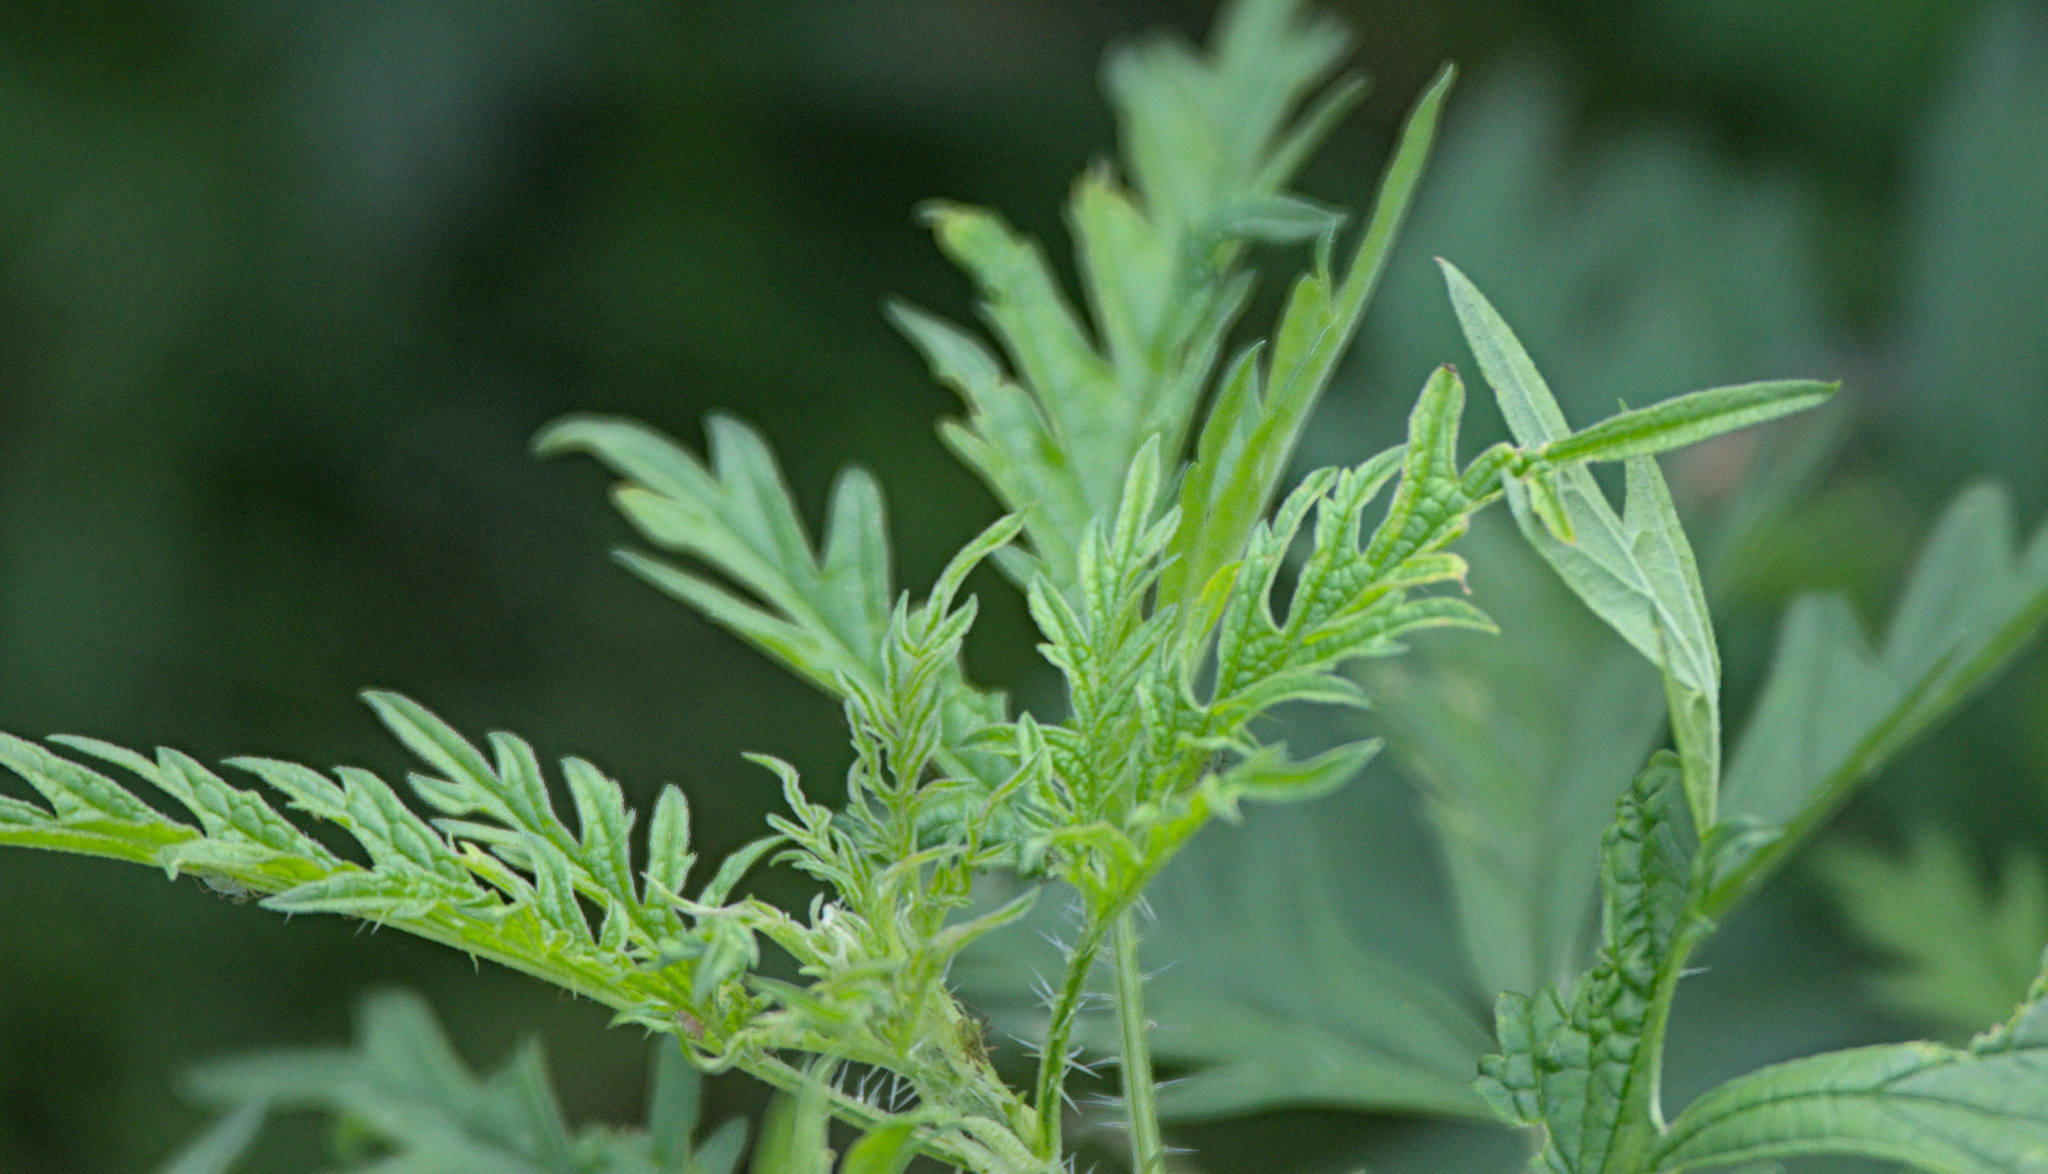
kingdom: Plantae
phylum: Tracheophyta
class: Magnoliopsida
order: Rosales
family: Urticaceae
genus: Urtica
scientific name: Urtica cannabina
